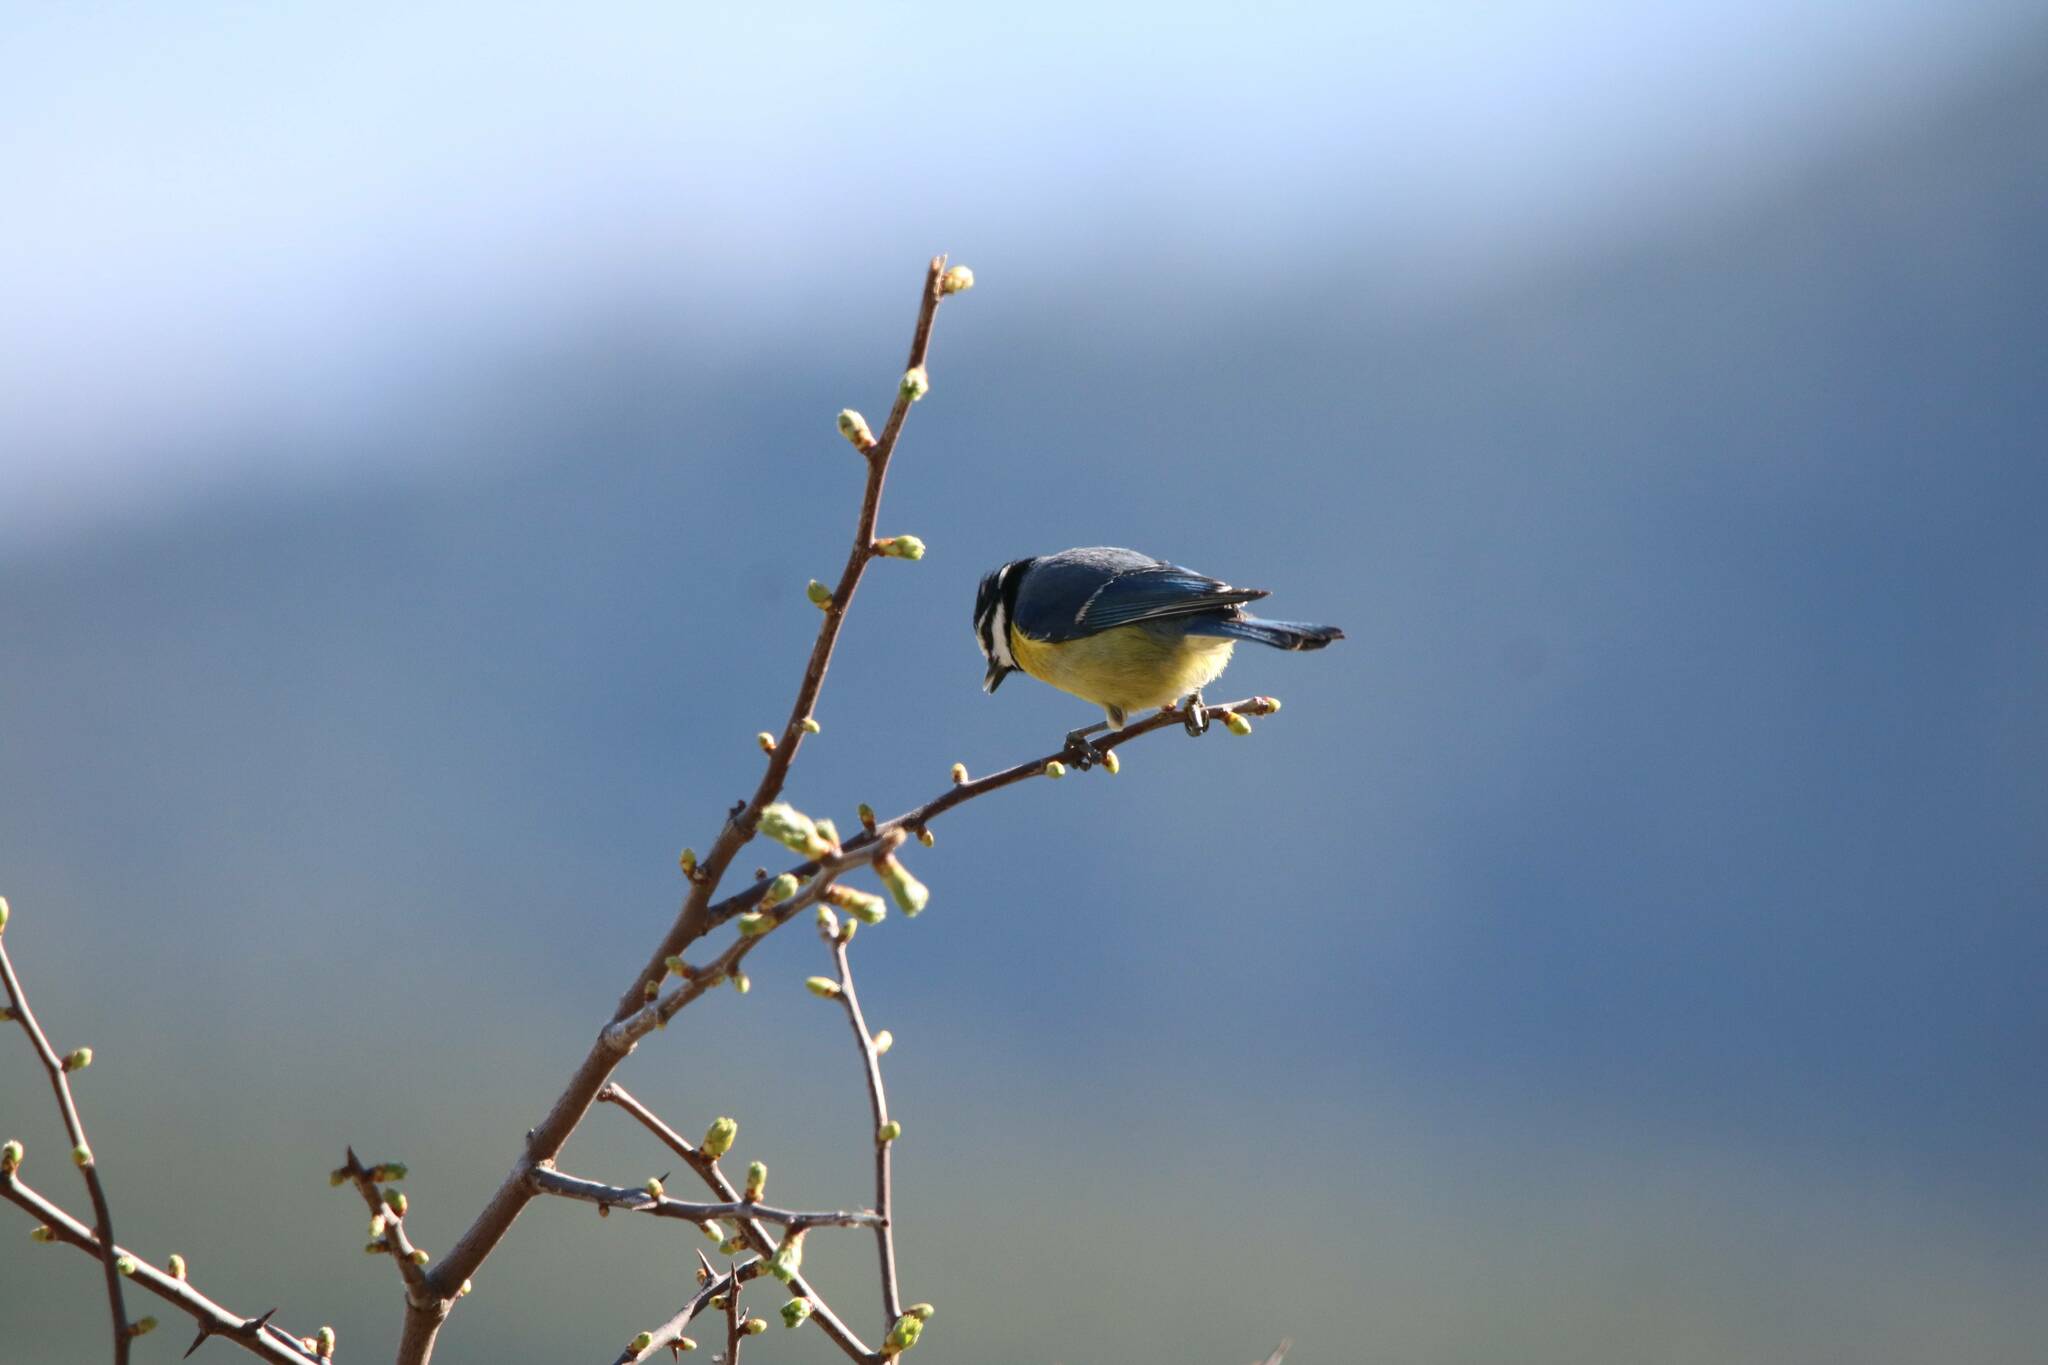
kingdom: Animalia
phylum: Chordata
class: Aves
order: Passeriformes
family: Paridae
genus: Cyanistes
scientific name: Cyanistes teneriffae
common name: African blue tit
